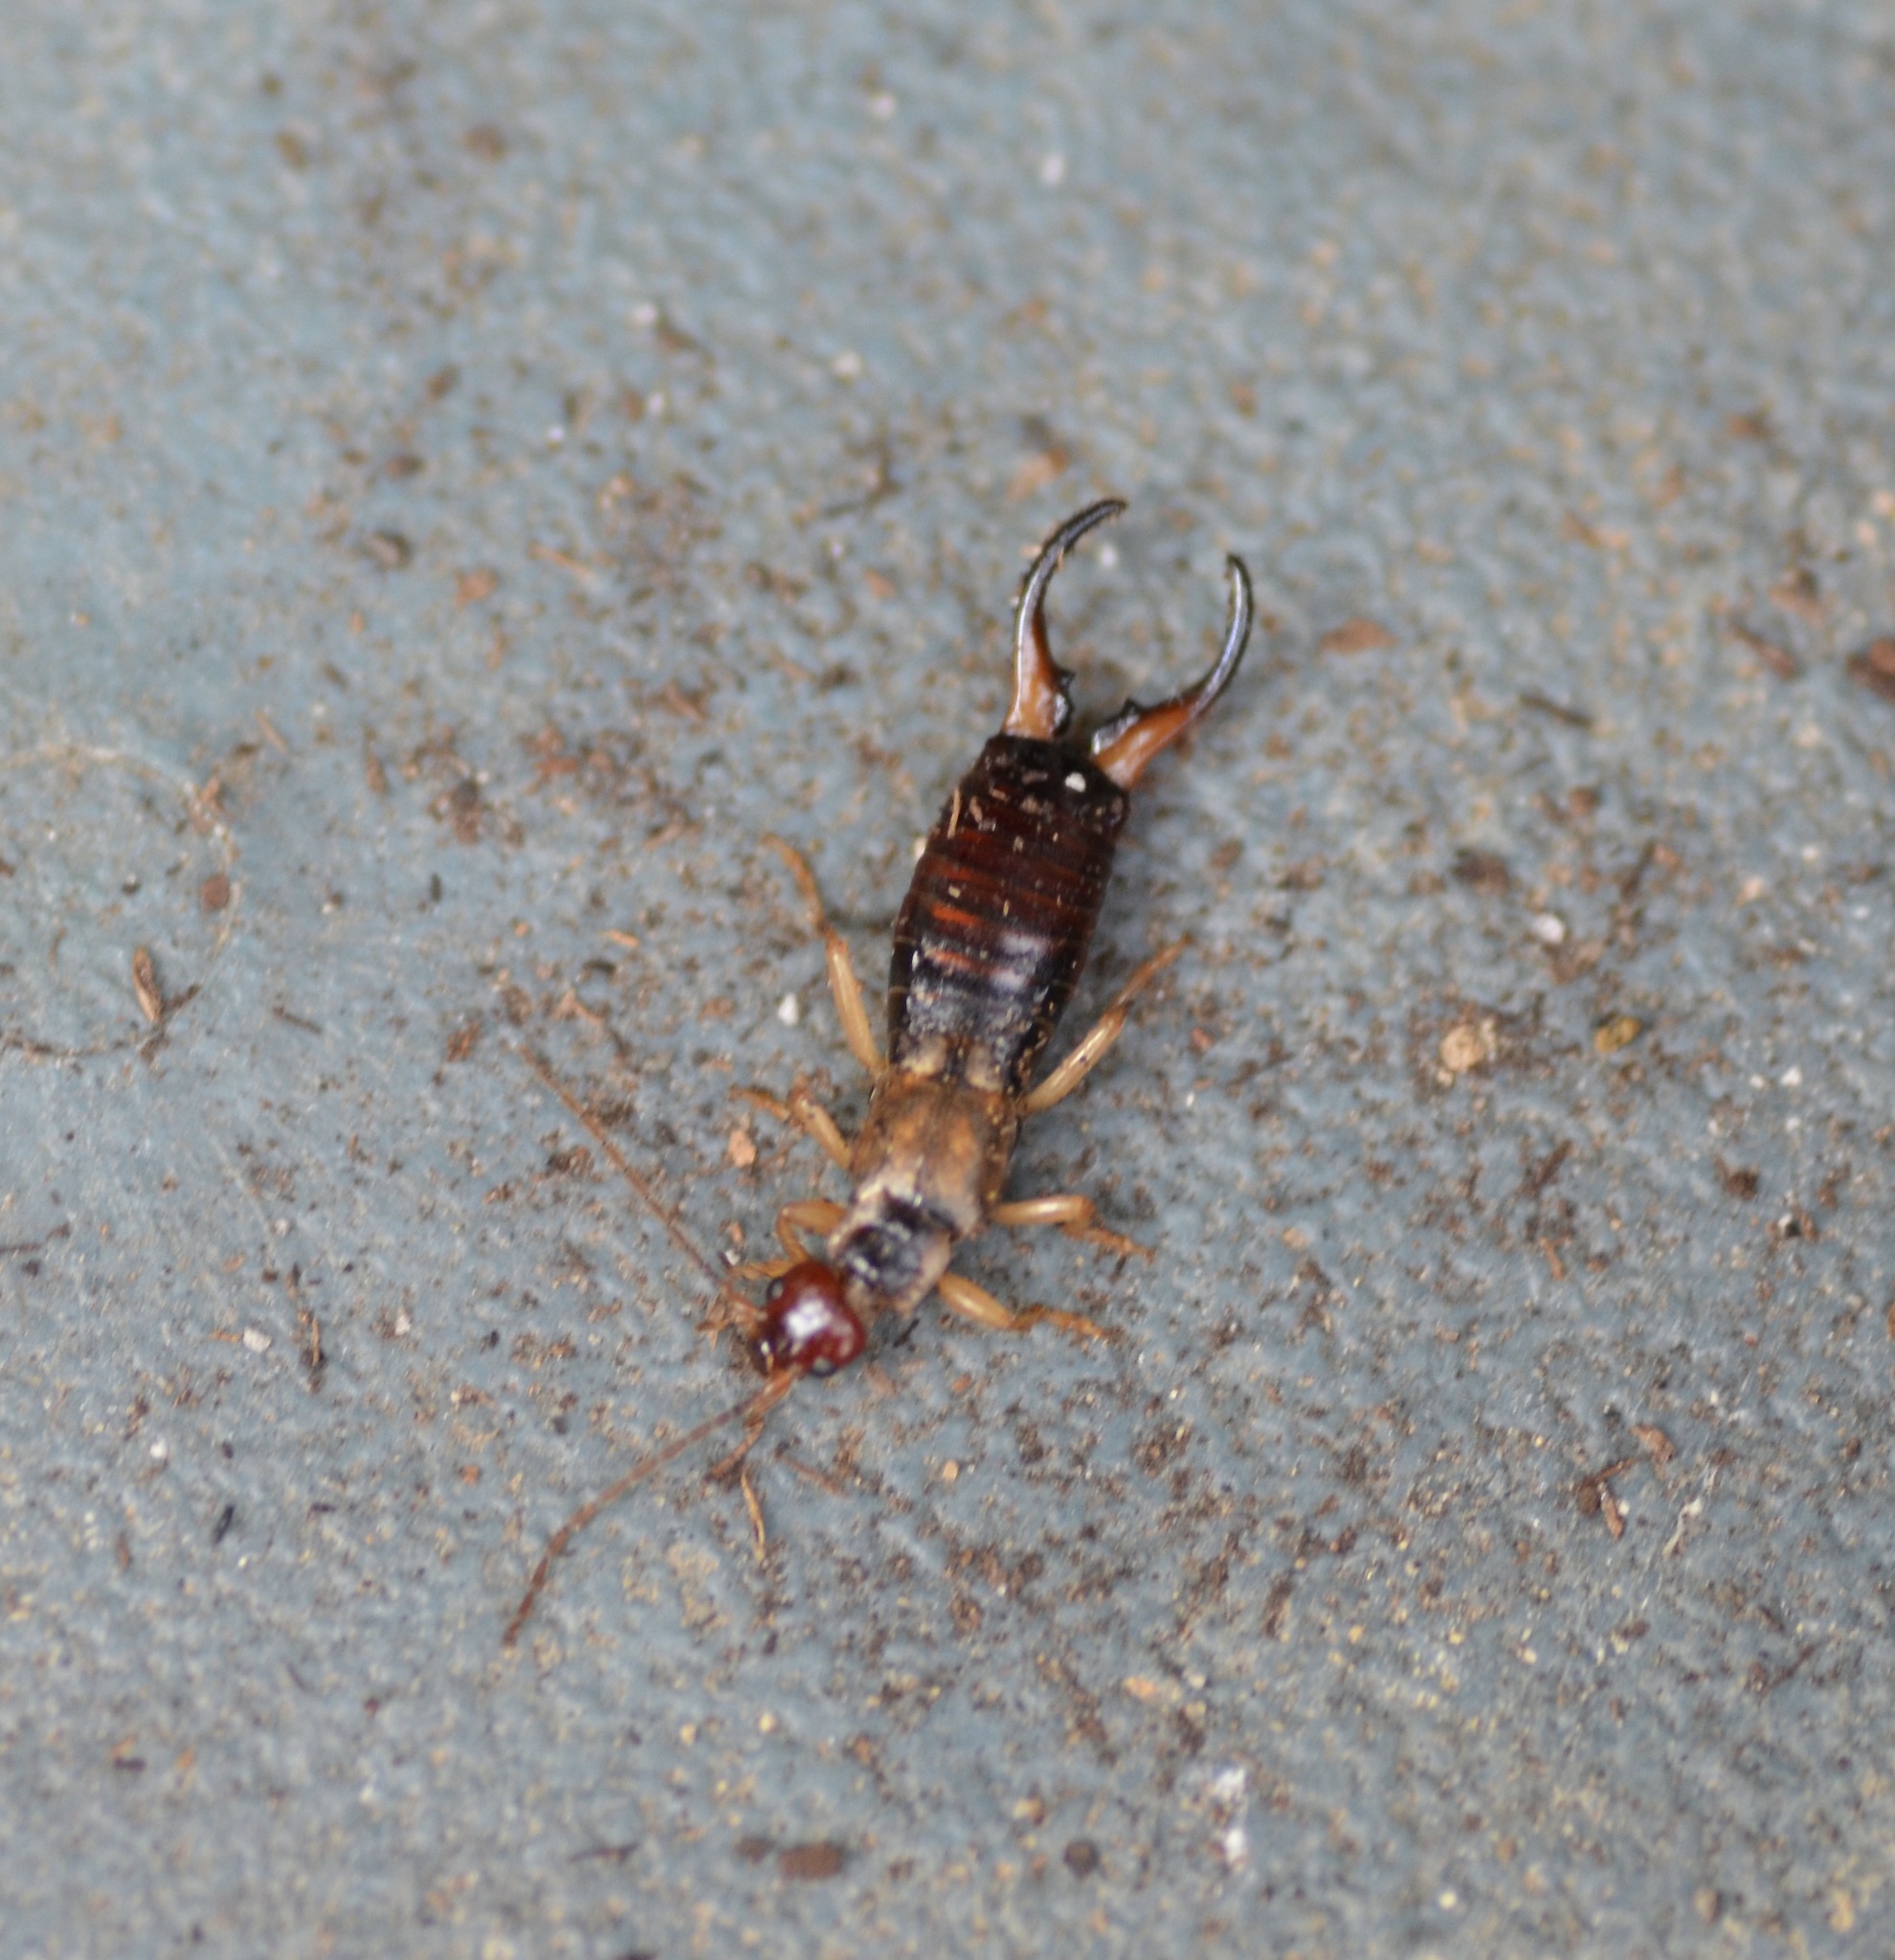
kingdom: Animalia
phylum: Arthropoda
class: Insecta
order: Dermaptera
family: Forficulidae
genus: Forficula
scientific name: Forficula
